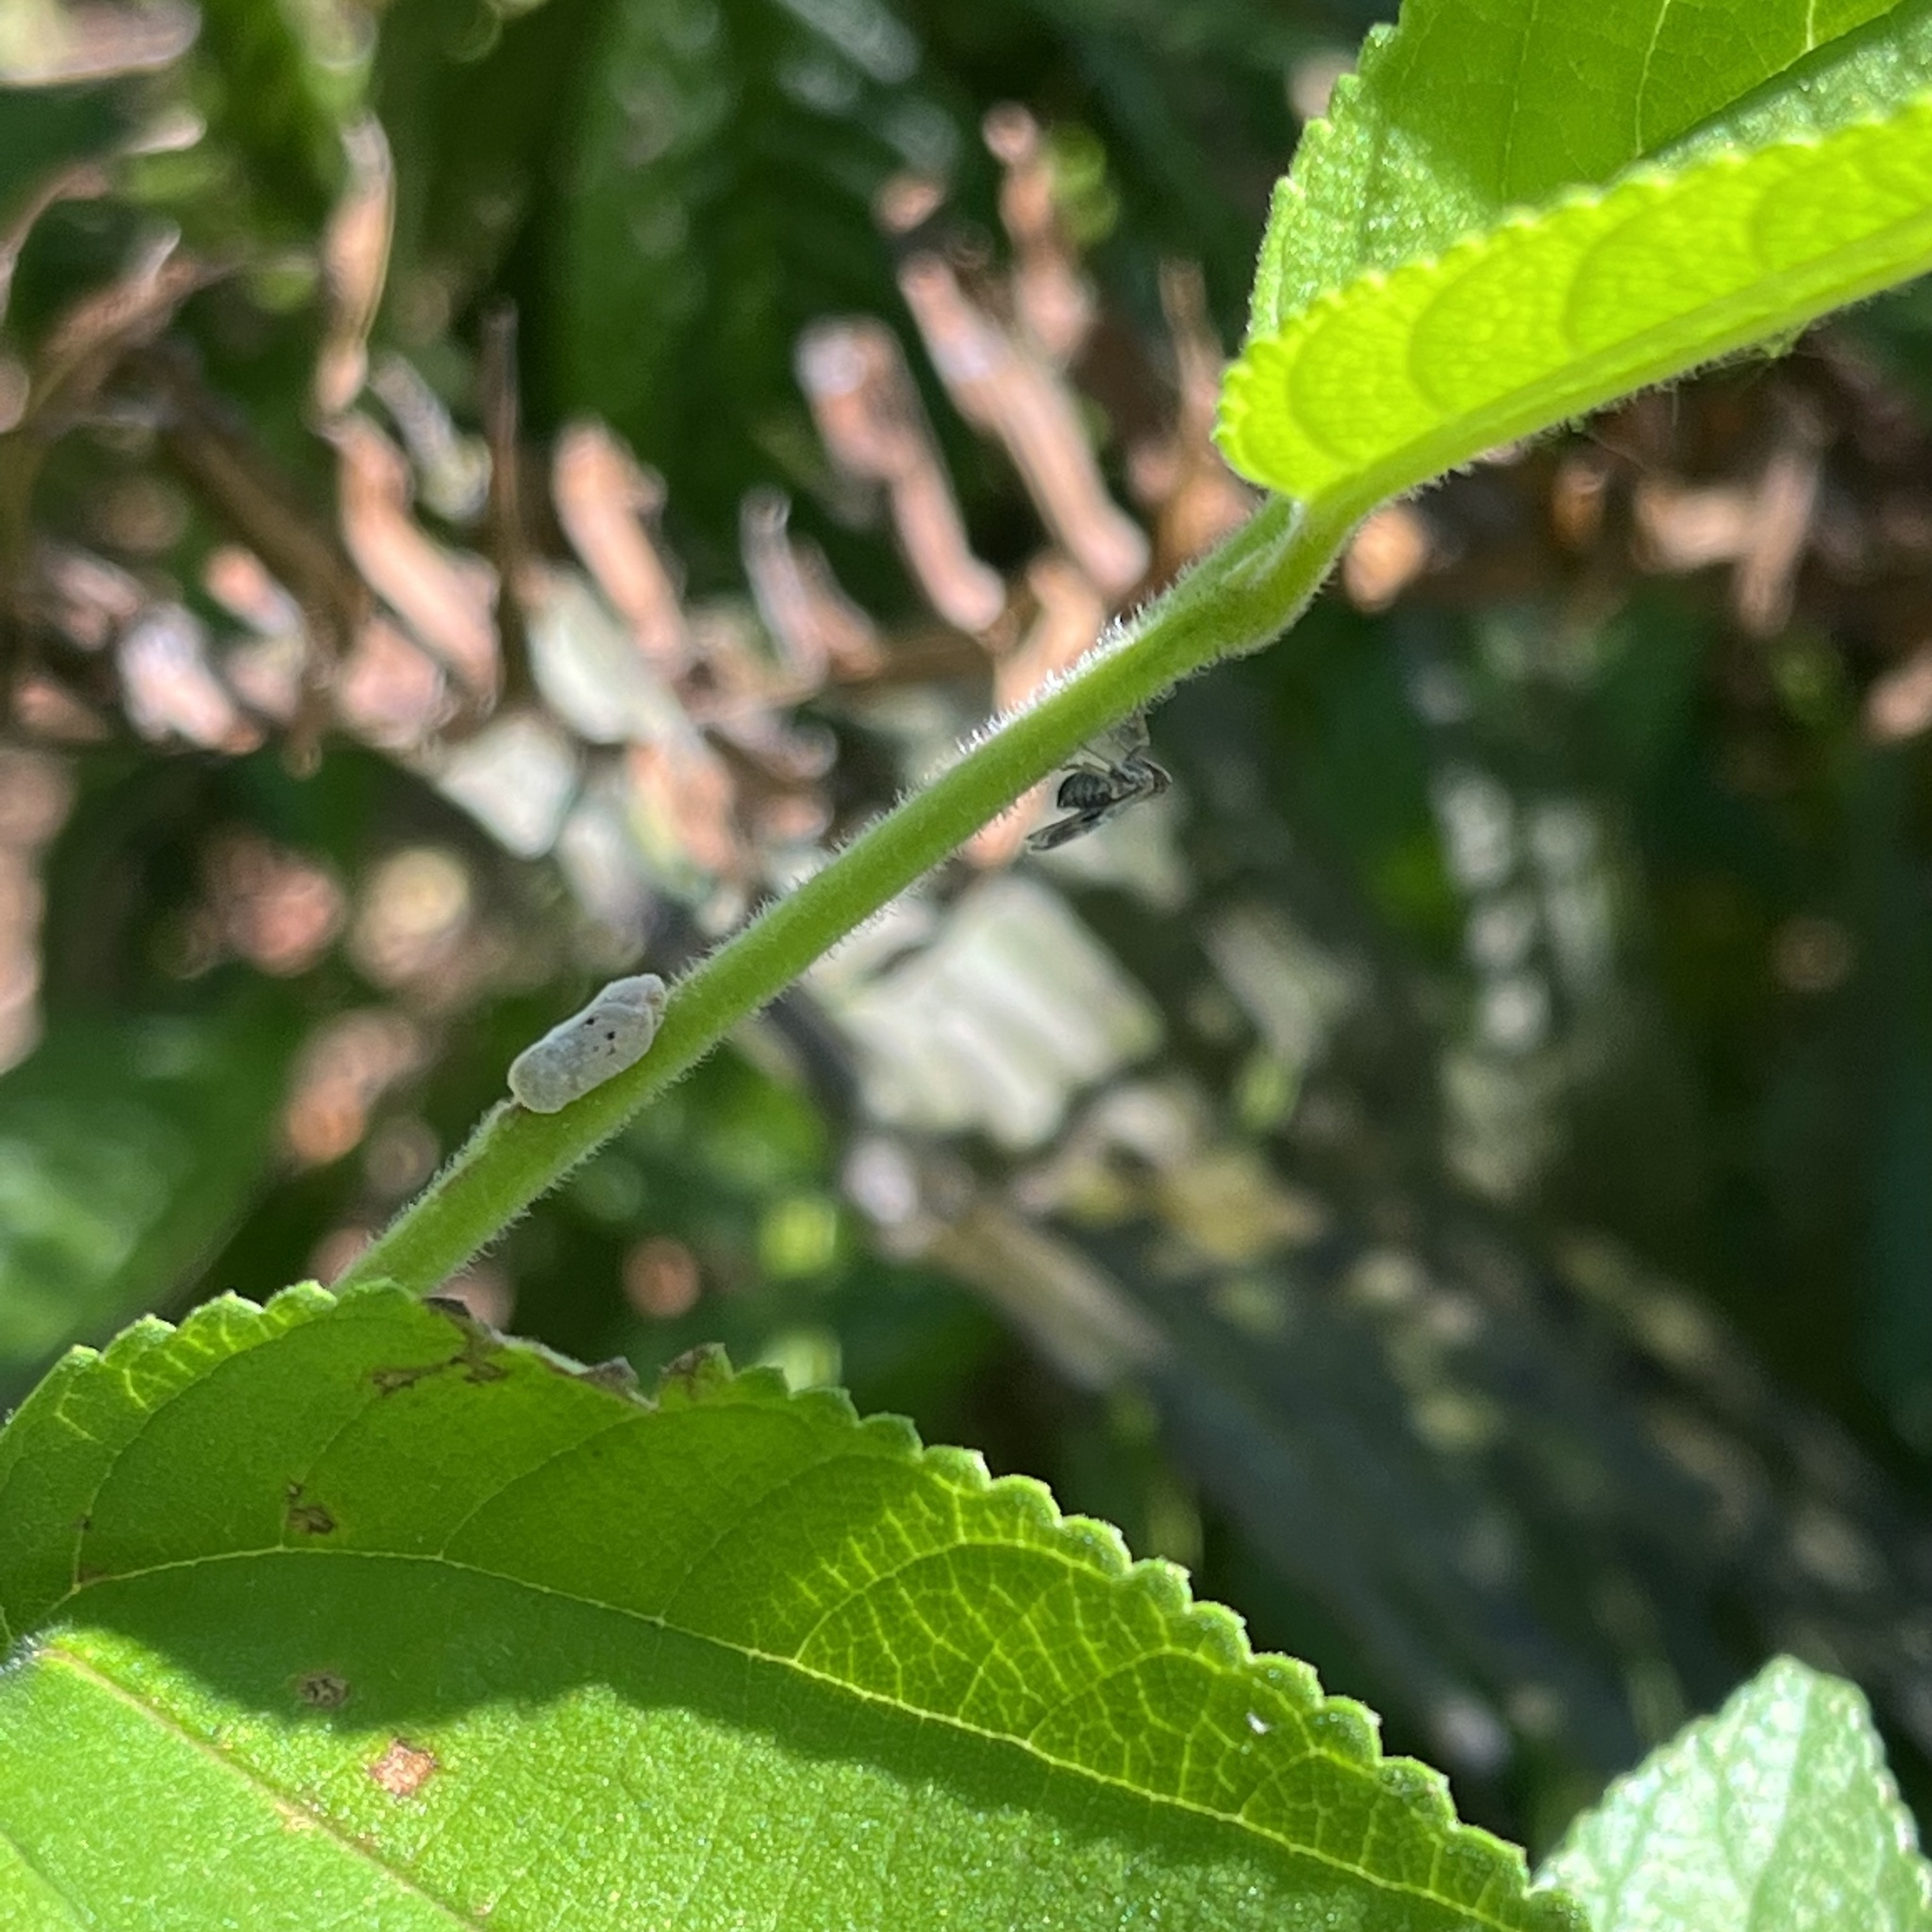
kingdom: Animalia
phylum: Arthropoda
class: Insecta
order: Hemiptera
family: Flatidae
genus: Melormenis
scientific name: Melormenis basalis
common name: Puerto rican planthopper
